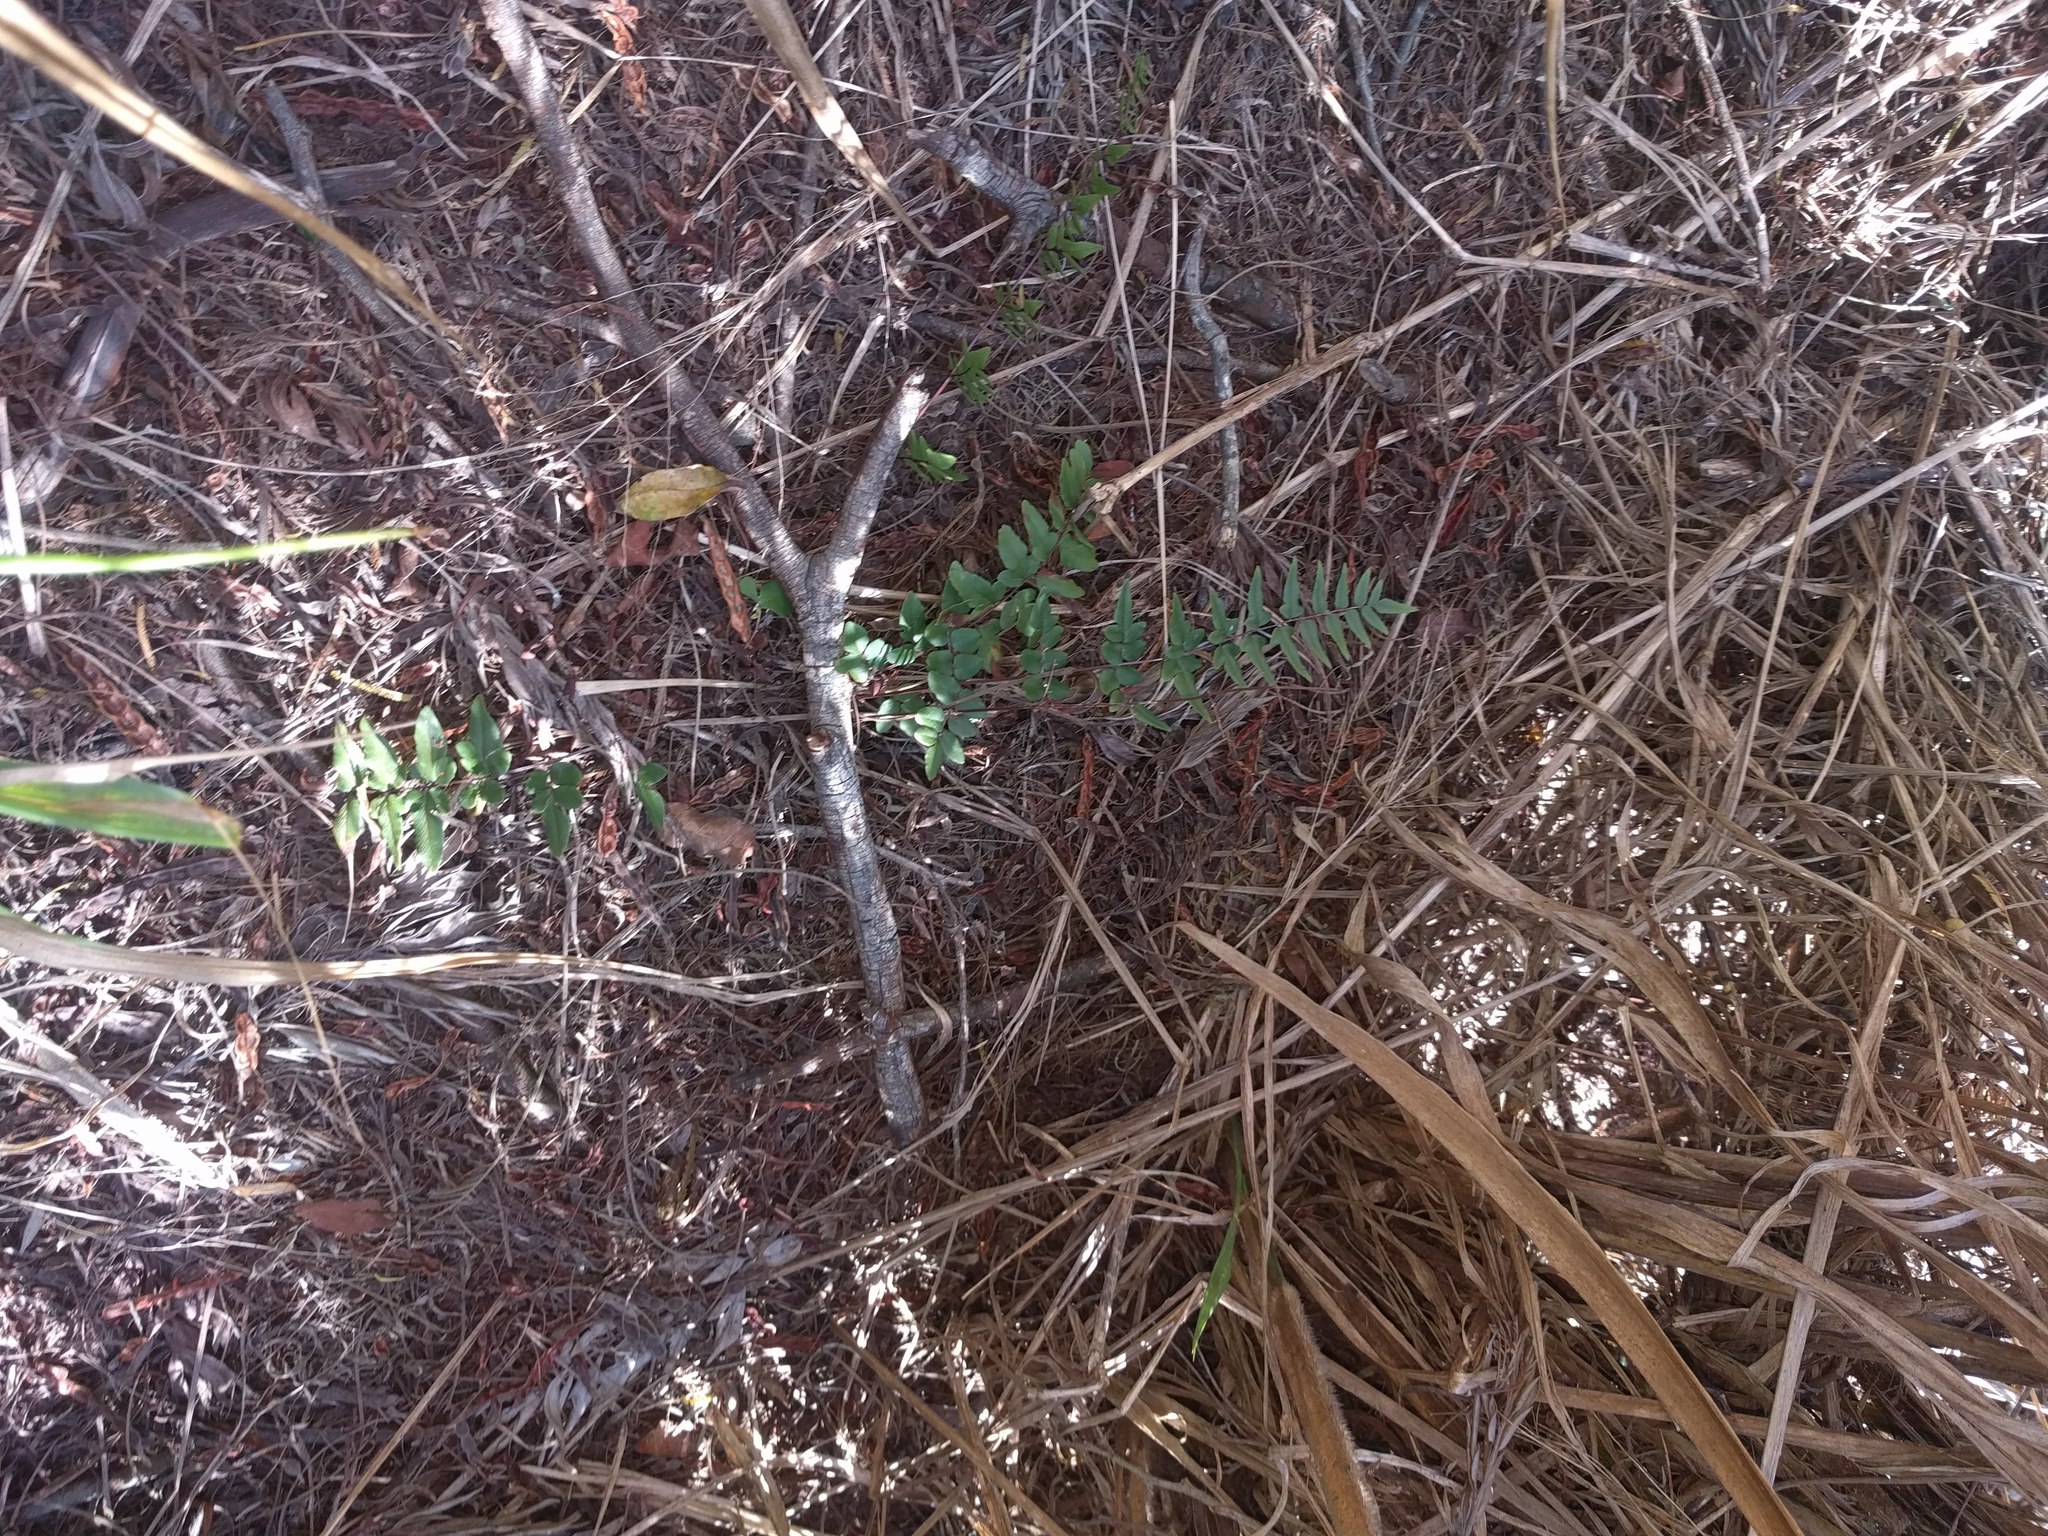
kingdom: Plantae
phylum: Tracheophyta
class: Polypodiopsida
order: Polypodiales
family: Pteridaceae
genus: Cheilanthes
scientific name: Cheilanthes viridis
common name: Green cliffbrake
